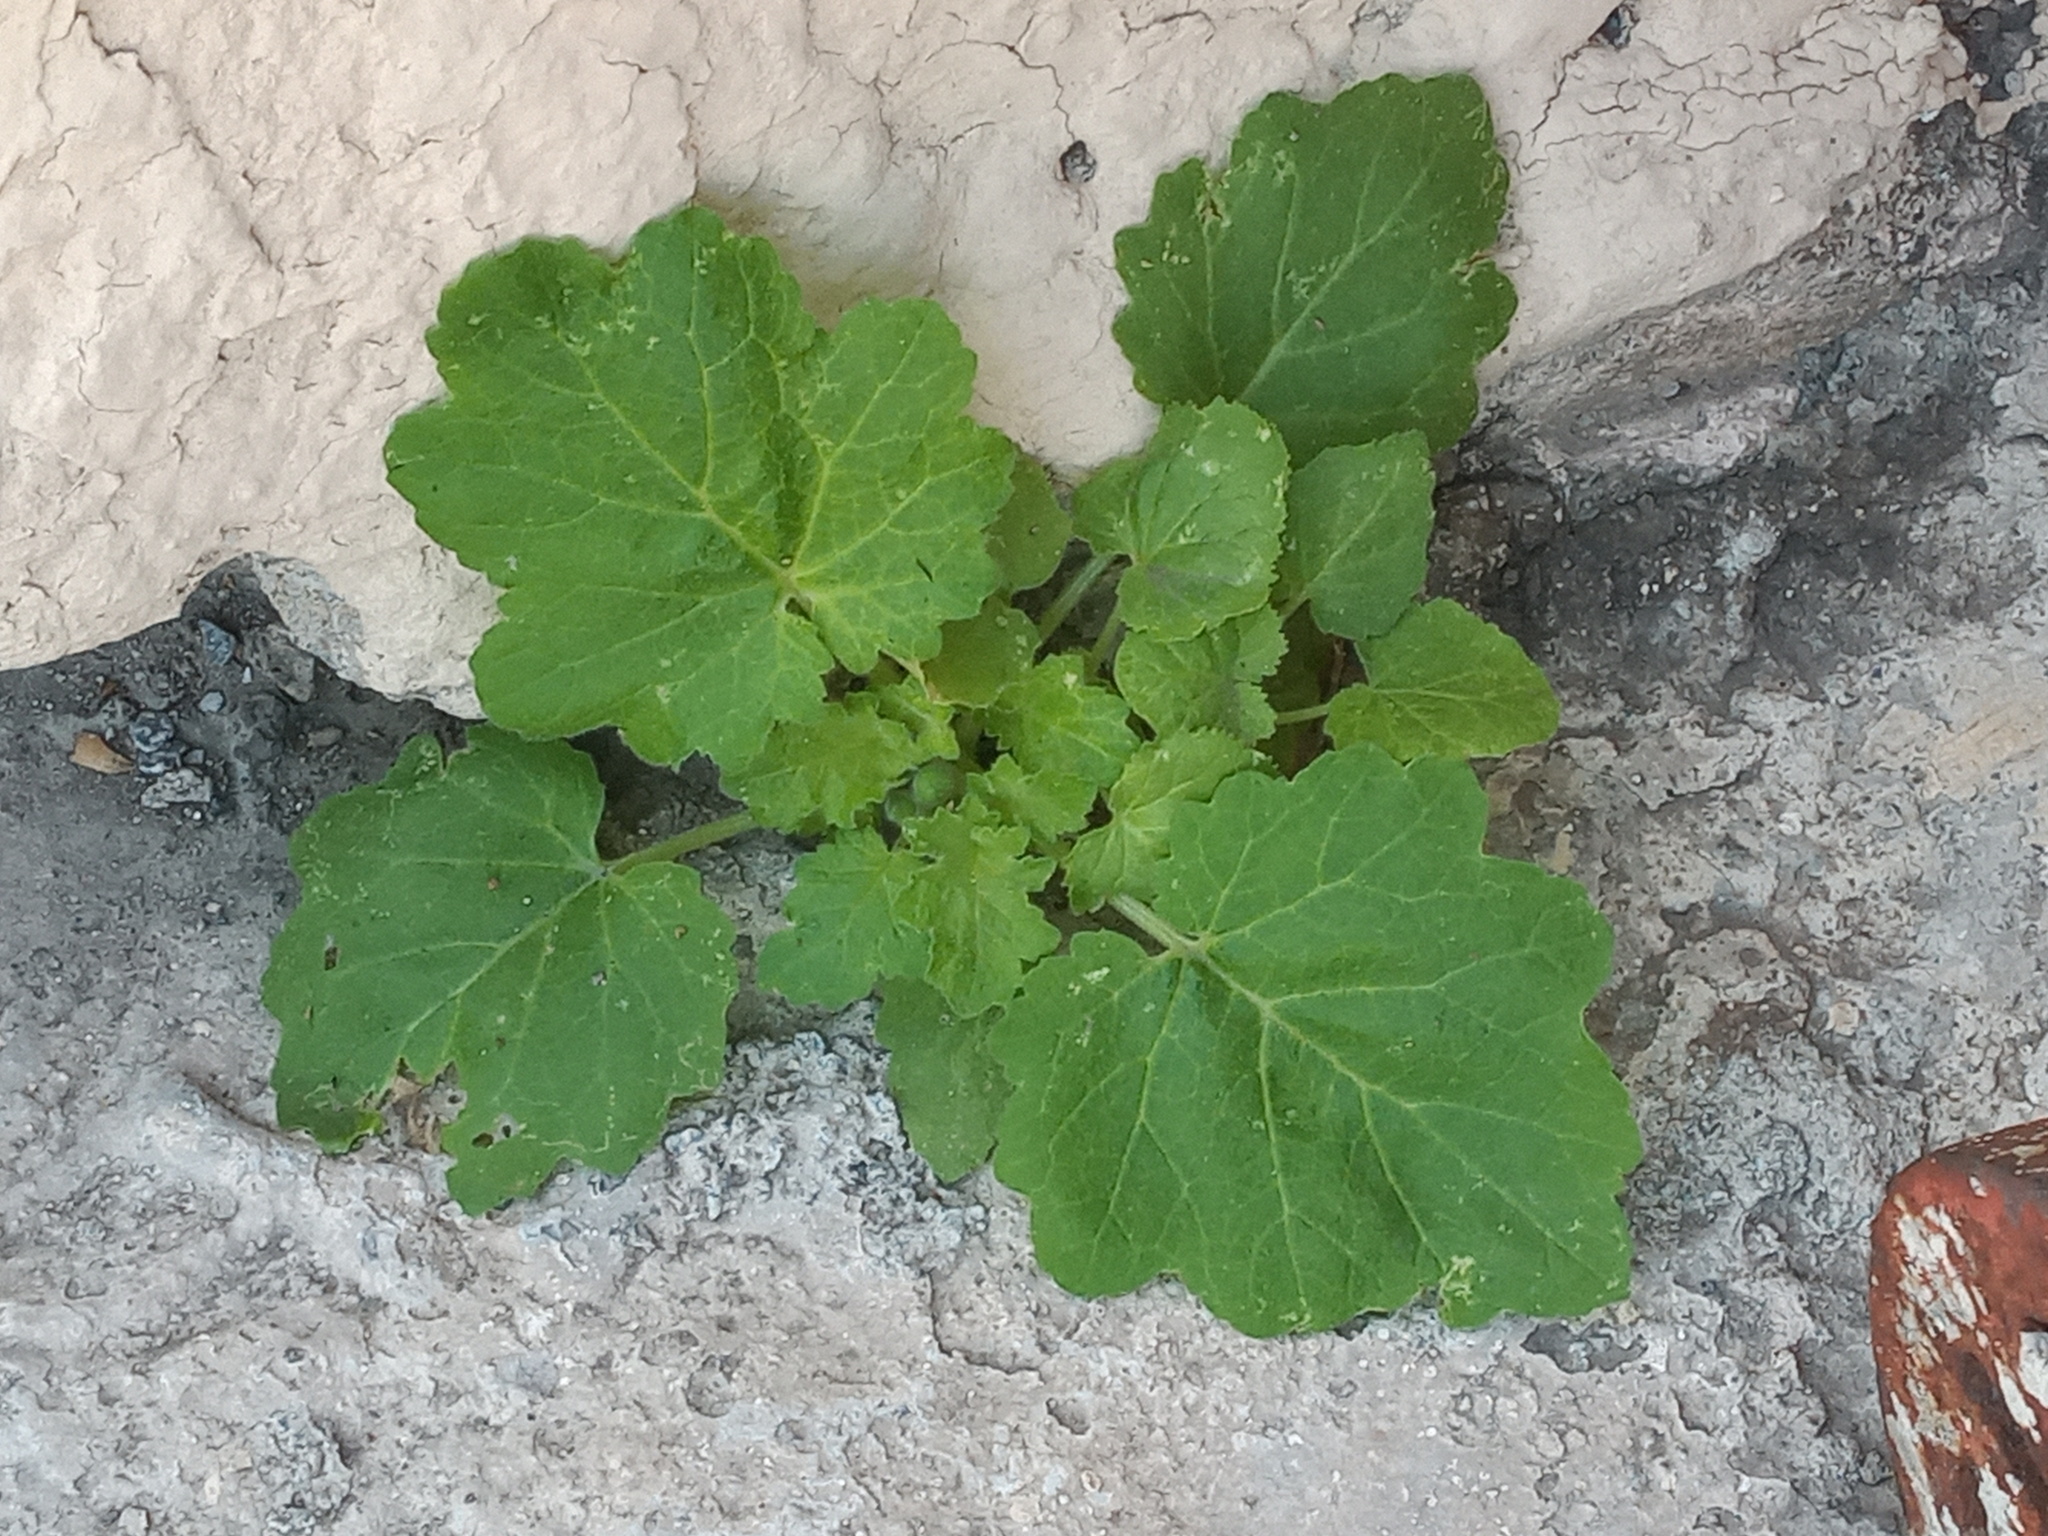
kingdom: Plantae
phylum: Tracheophyta
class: Magnoliopsida
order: Cornales
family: Loasaceae
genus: Eucnide
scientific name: Eucnide lobata
